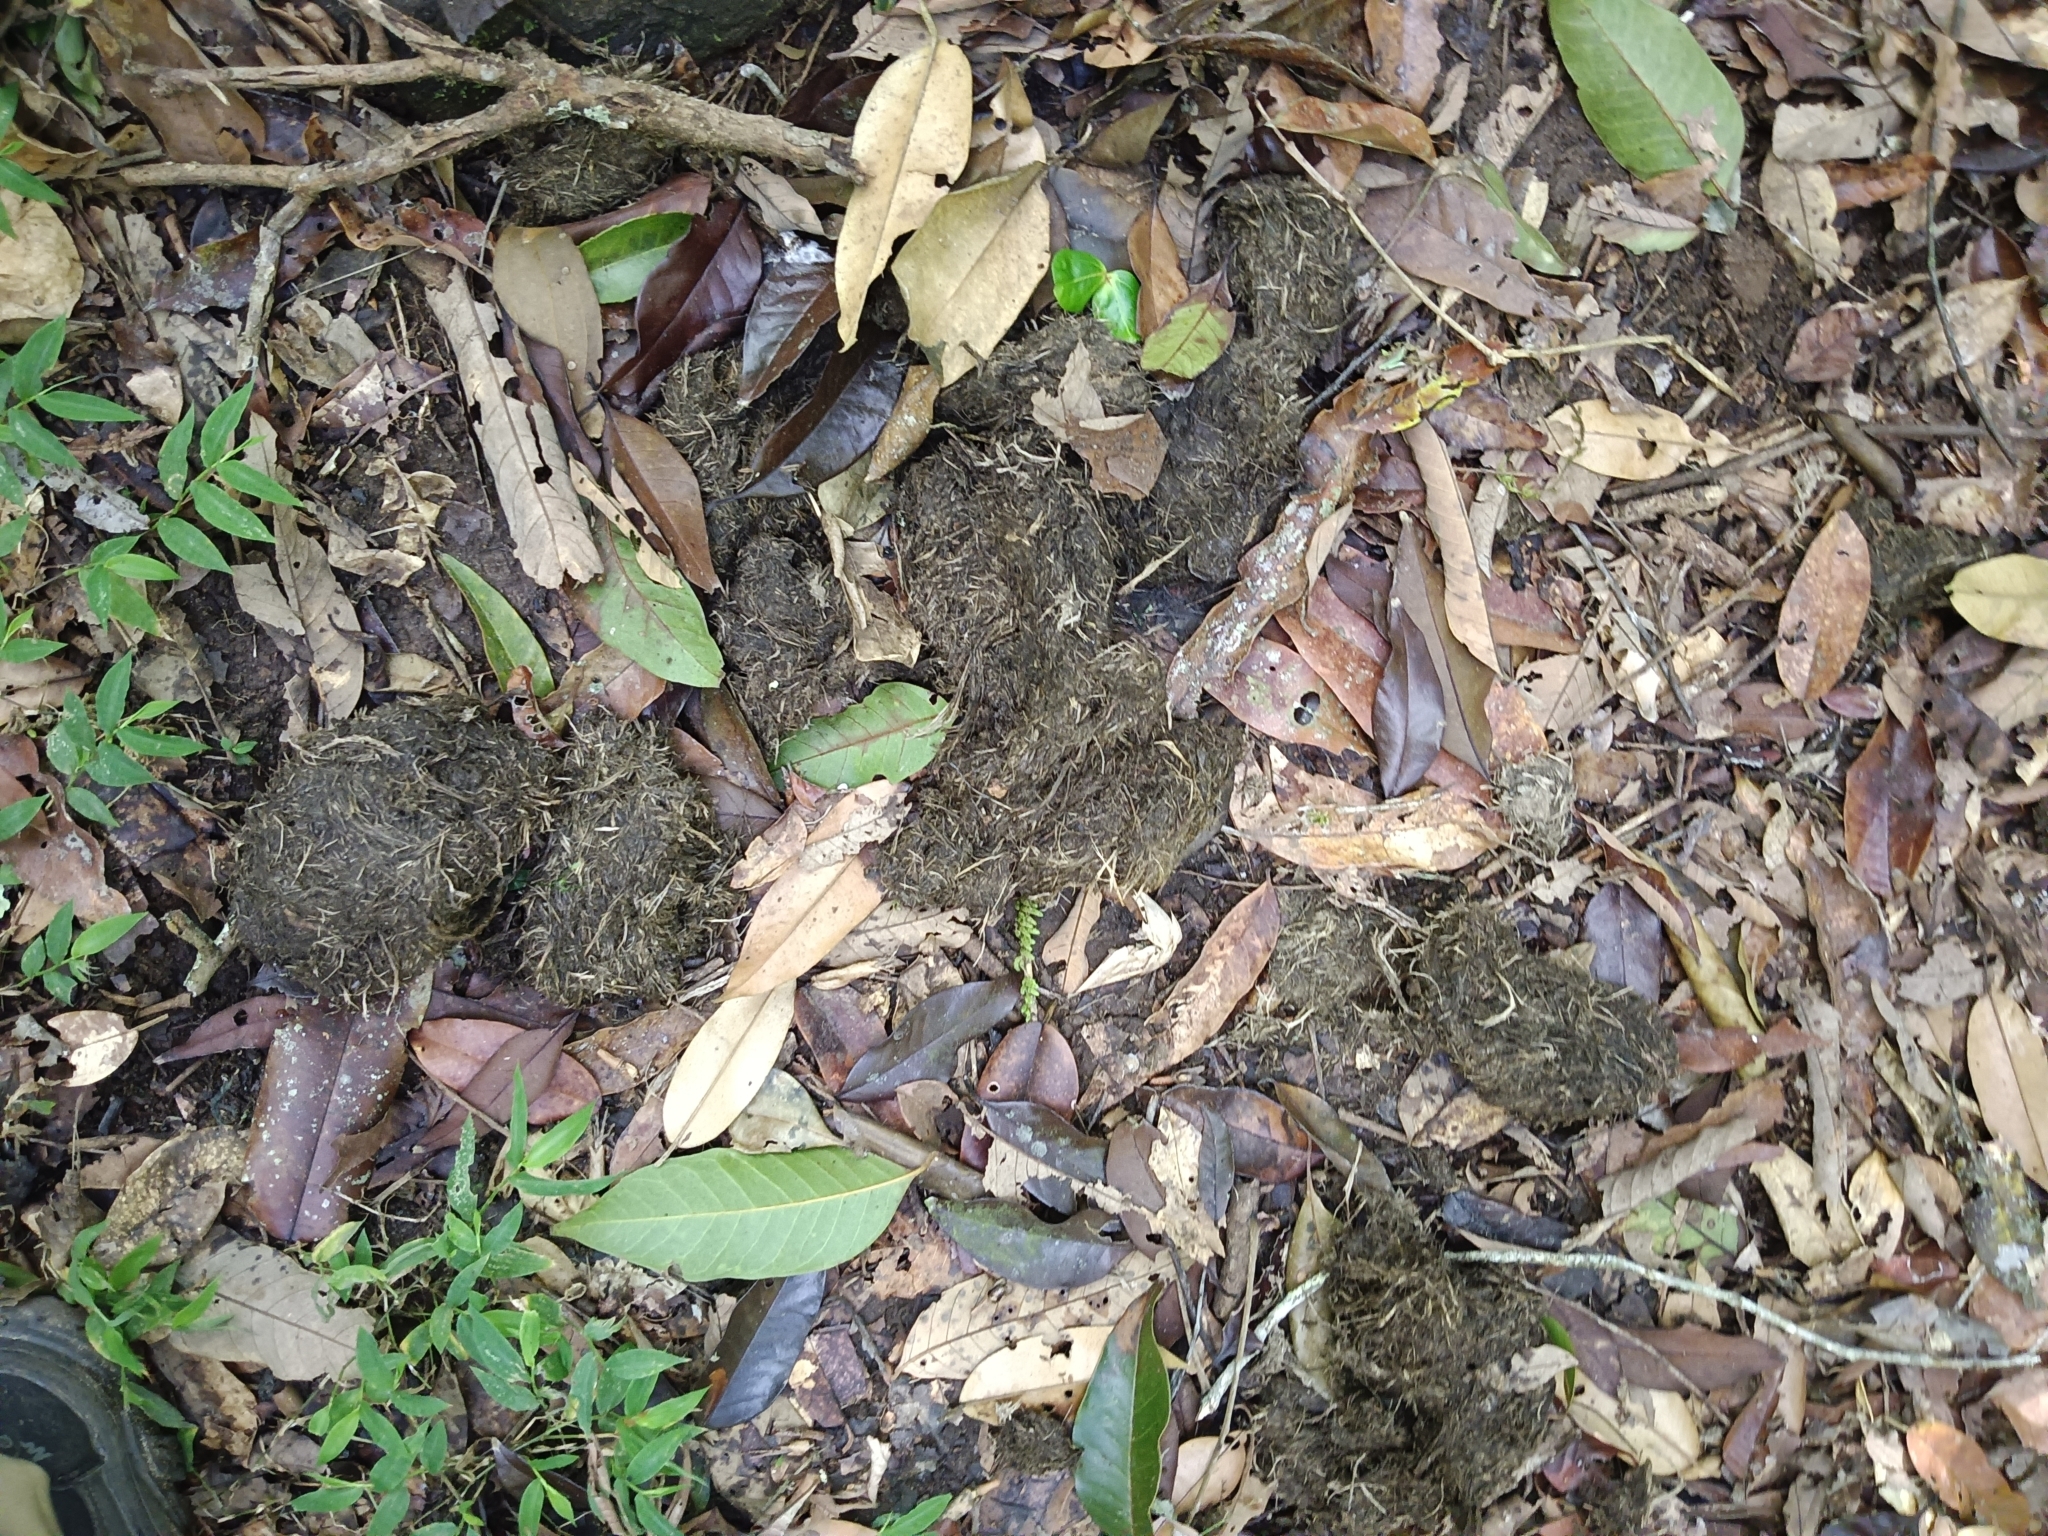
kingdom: Animalia
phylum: Chordata
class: Mammalia
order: Proboscidea
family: Elephantidae
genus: Elephas
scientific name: Elephas maximus
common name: Asian elephant
